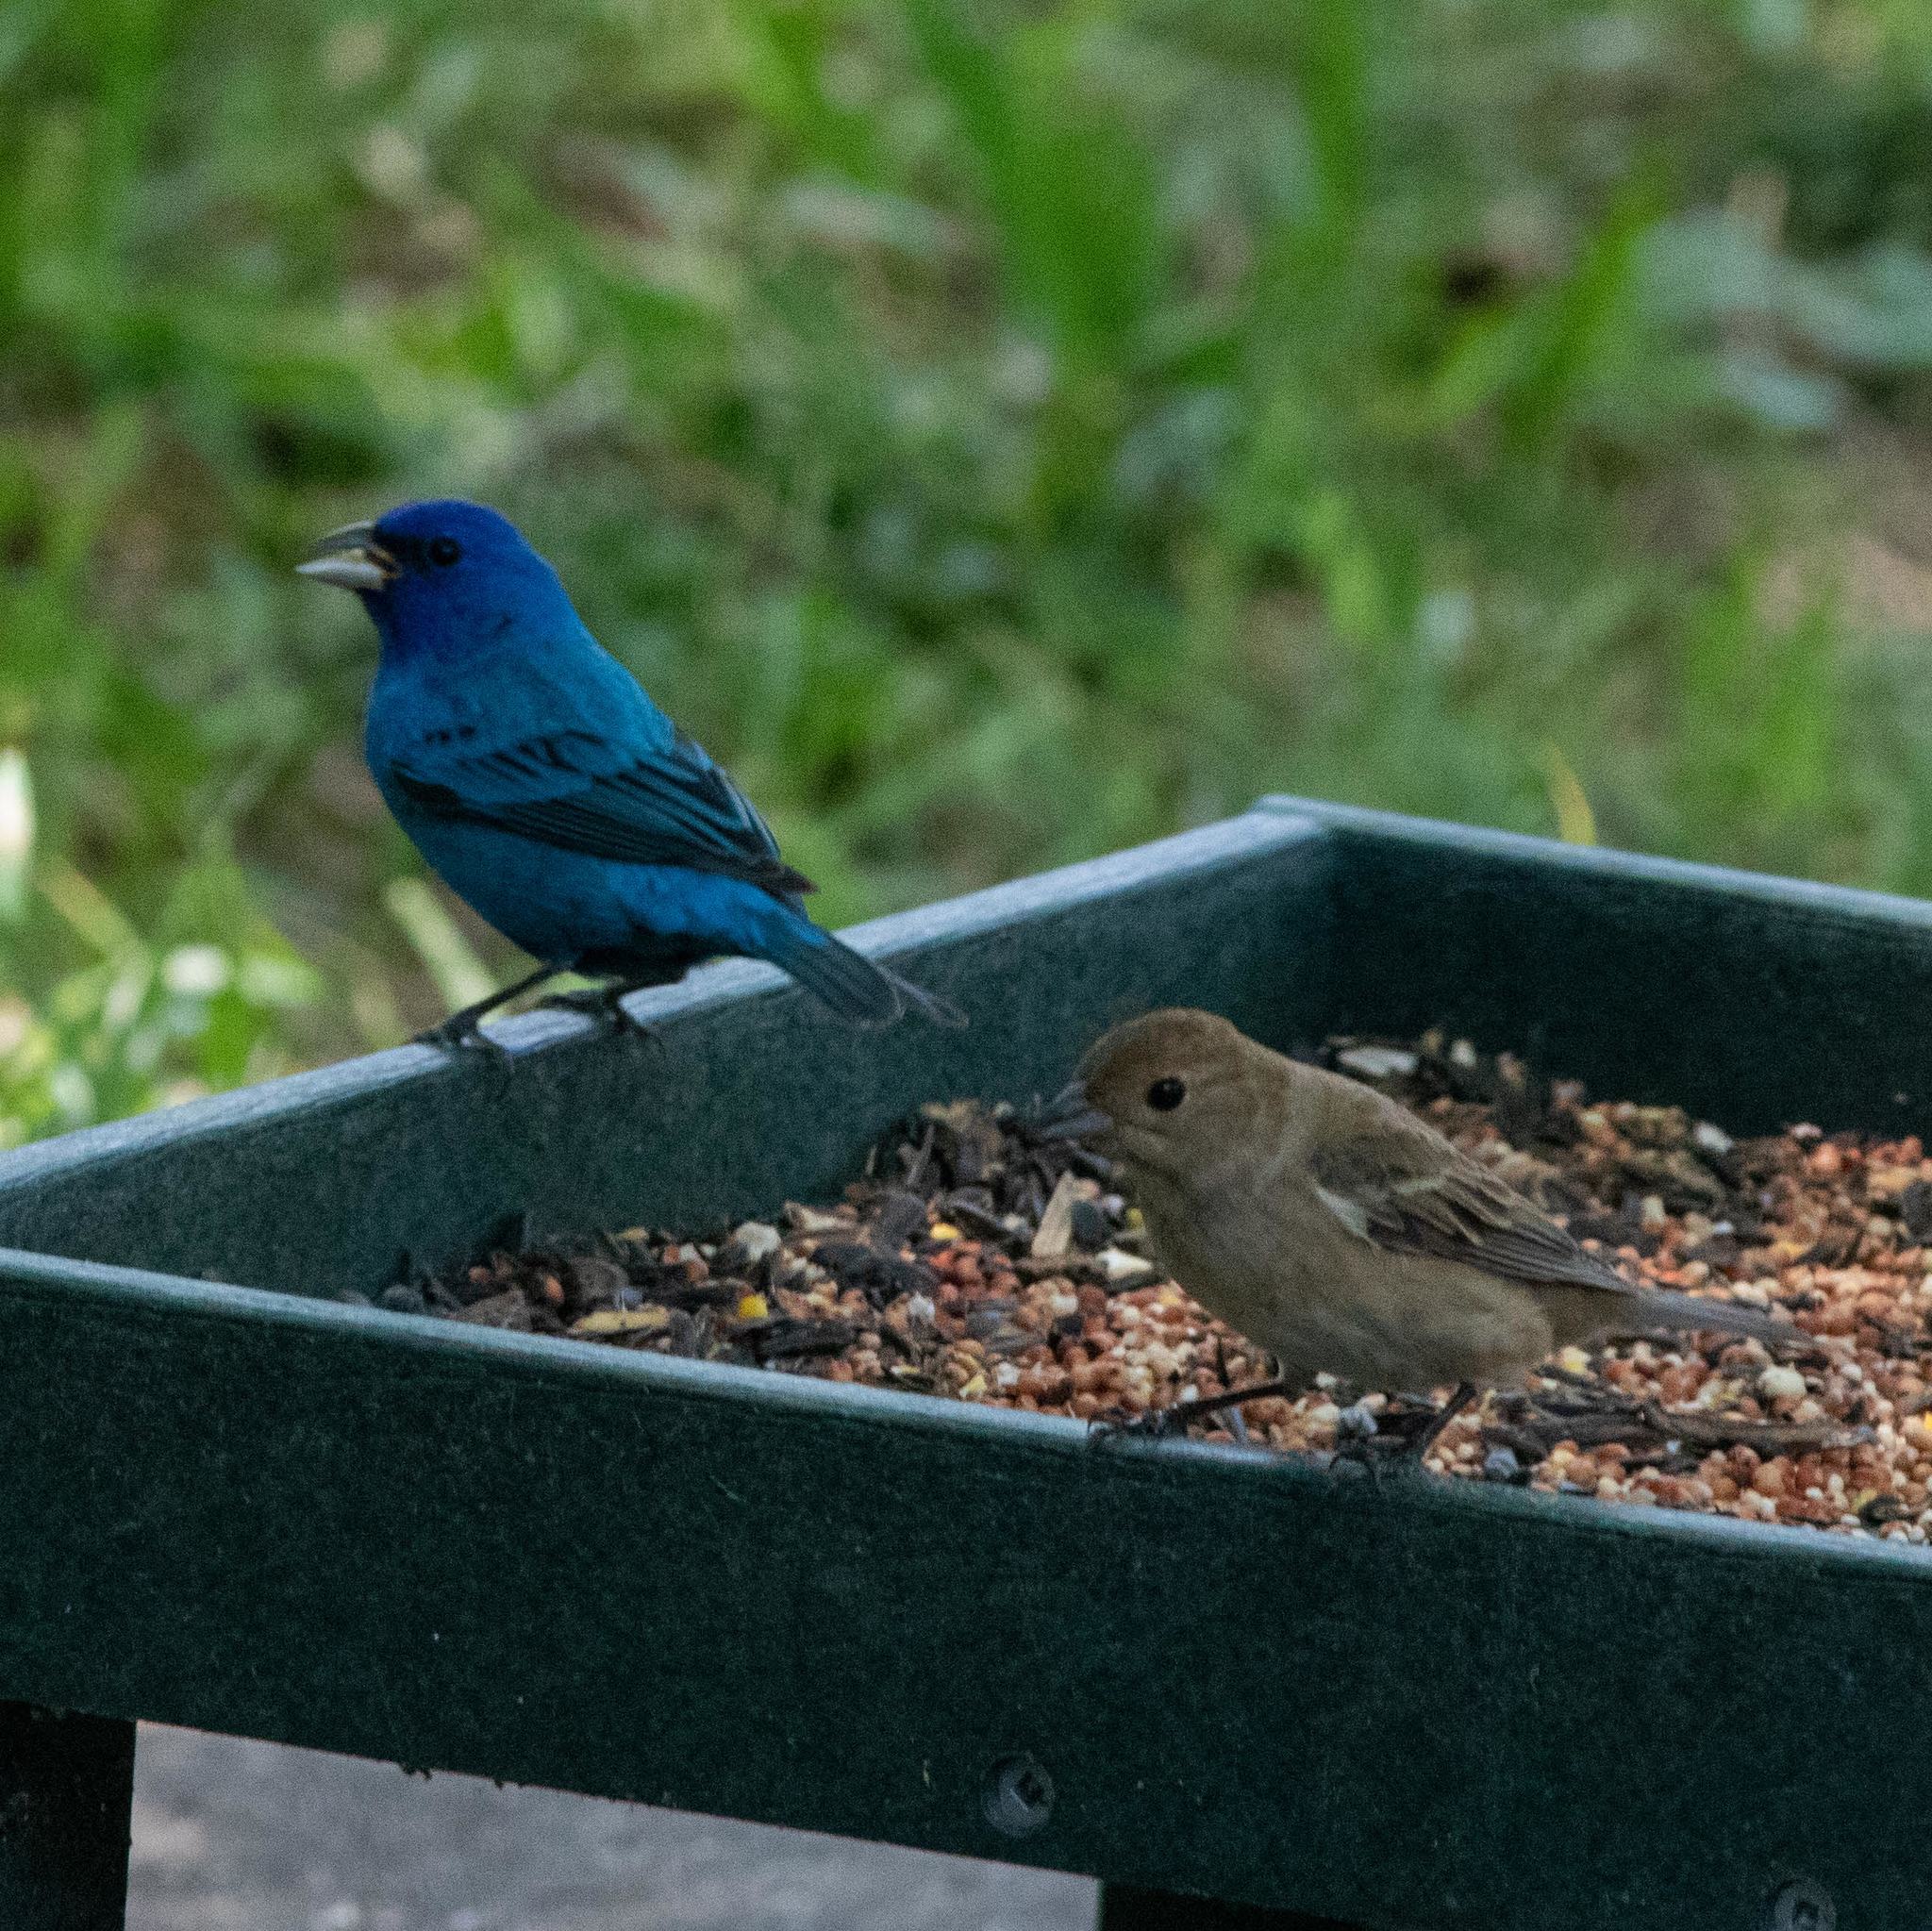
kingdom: Animalia
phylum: Chordata
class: Aves
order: Passeriformes
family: Cardinalidae
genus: Passerina
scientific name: Passerina cyanea
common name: Indigo bunting
